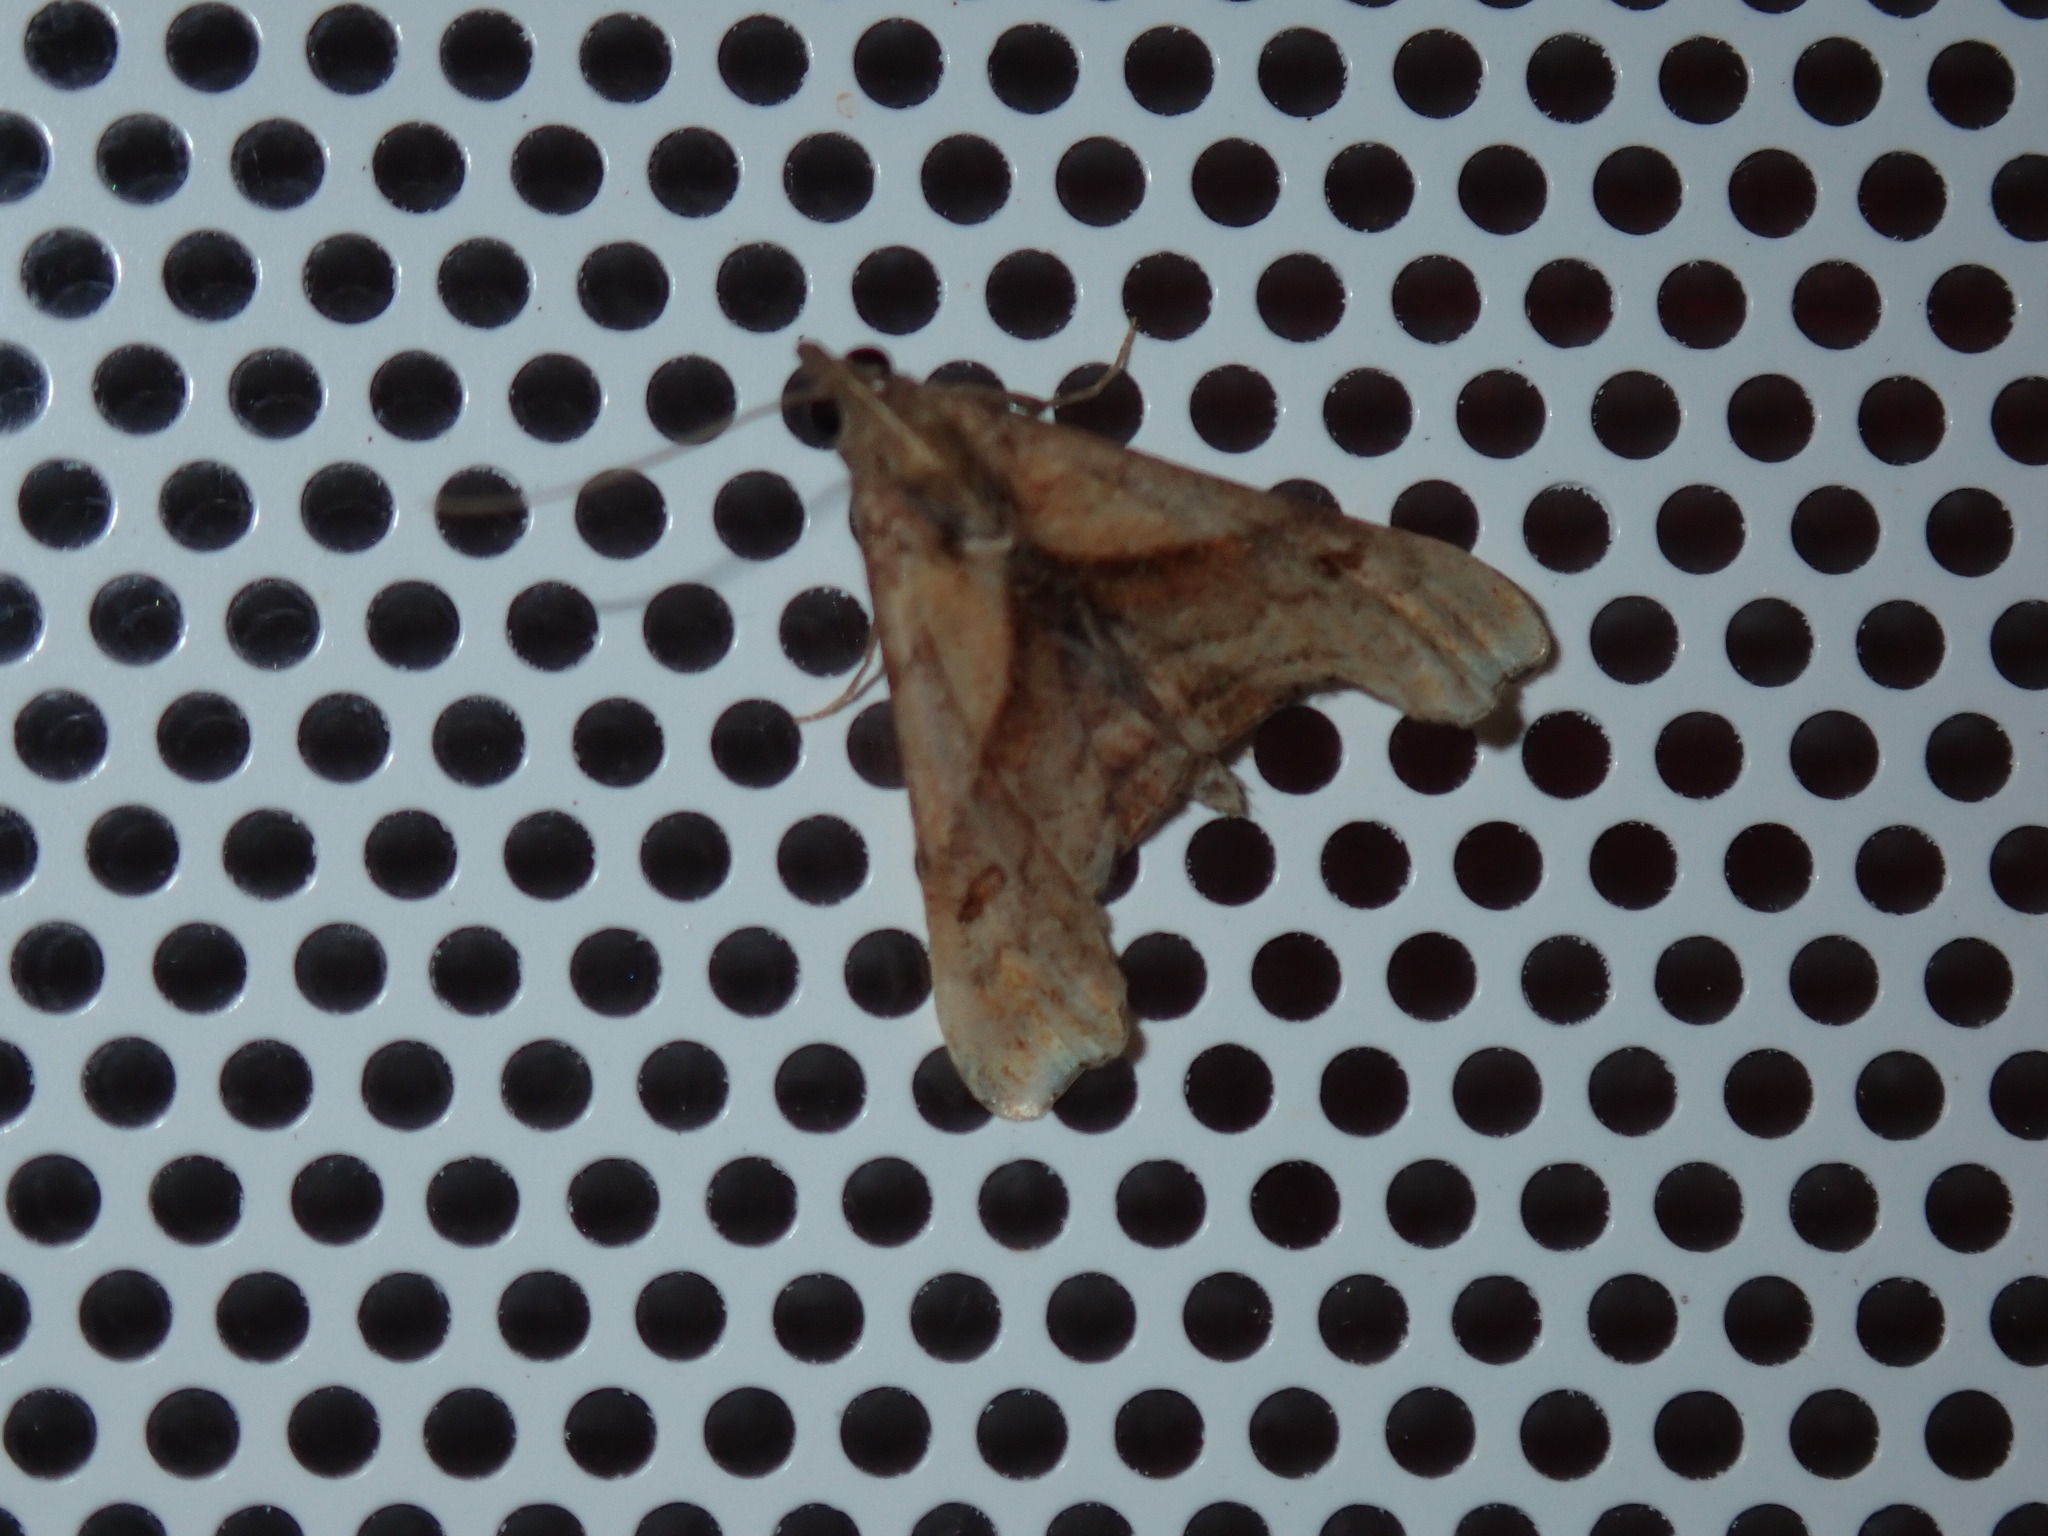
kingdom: Animalia
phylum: Arthropoda
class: Insecta
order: Lepidoptera
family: Erebidae
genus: Palthis
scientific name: Palthis angulalis
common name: Dark-spotted palthis moth
